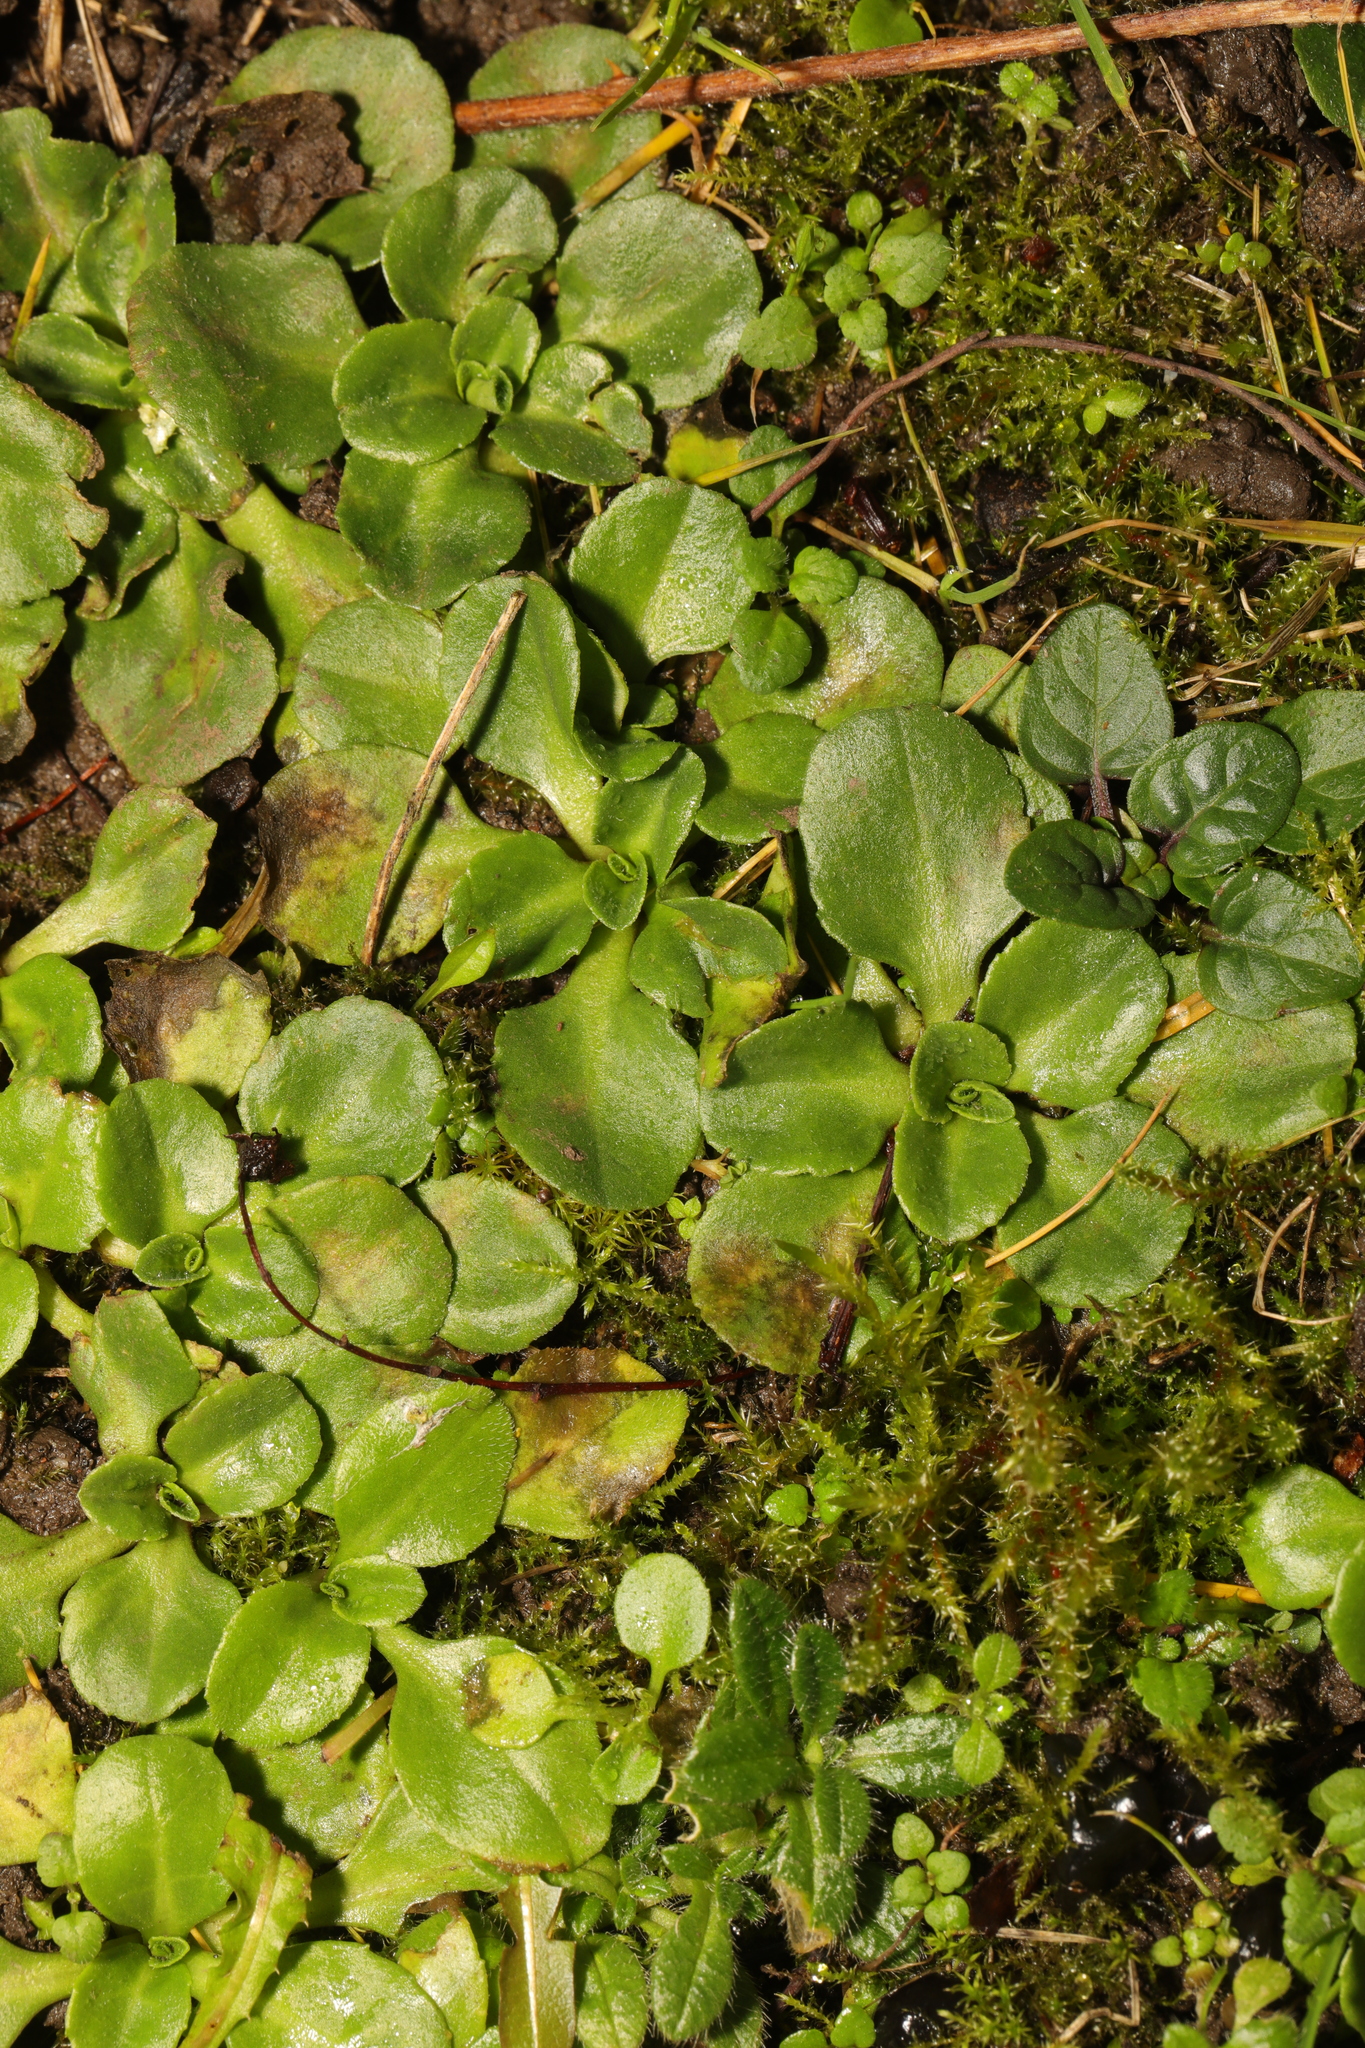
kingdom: Plantae
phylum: Tracheophyta
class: Magnoliopsida
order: Asterales
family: Asteraceae
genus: Bellis
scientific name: Bellis perennis
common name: Lawndaisy
